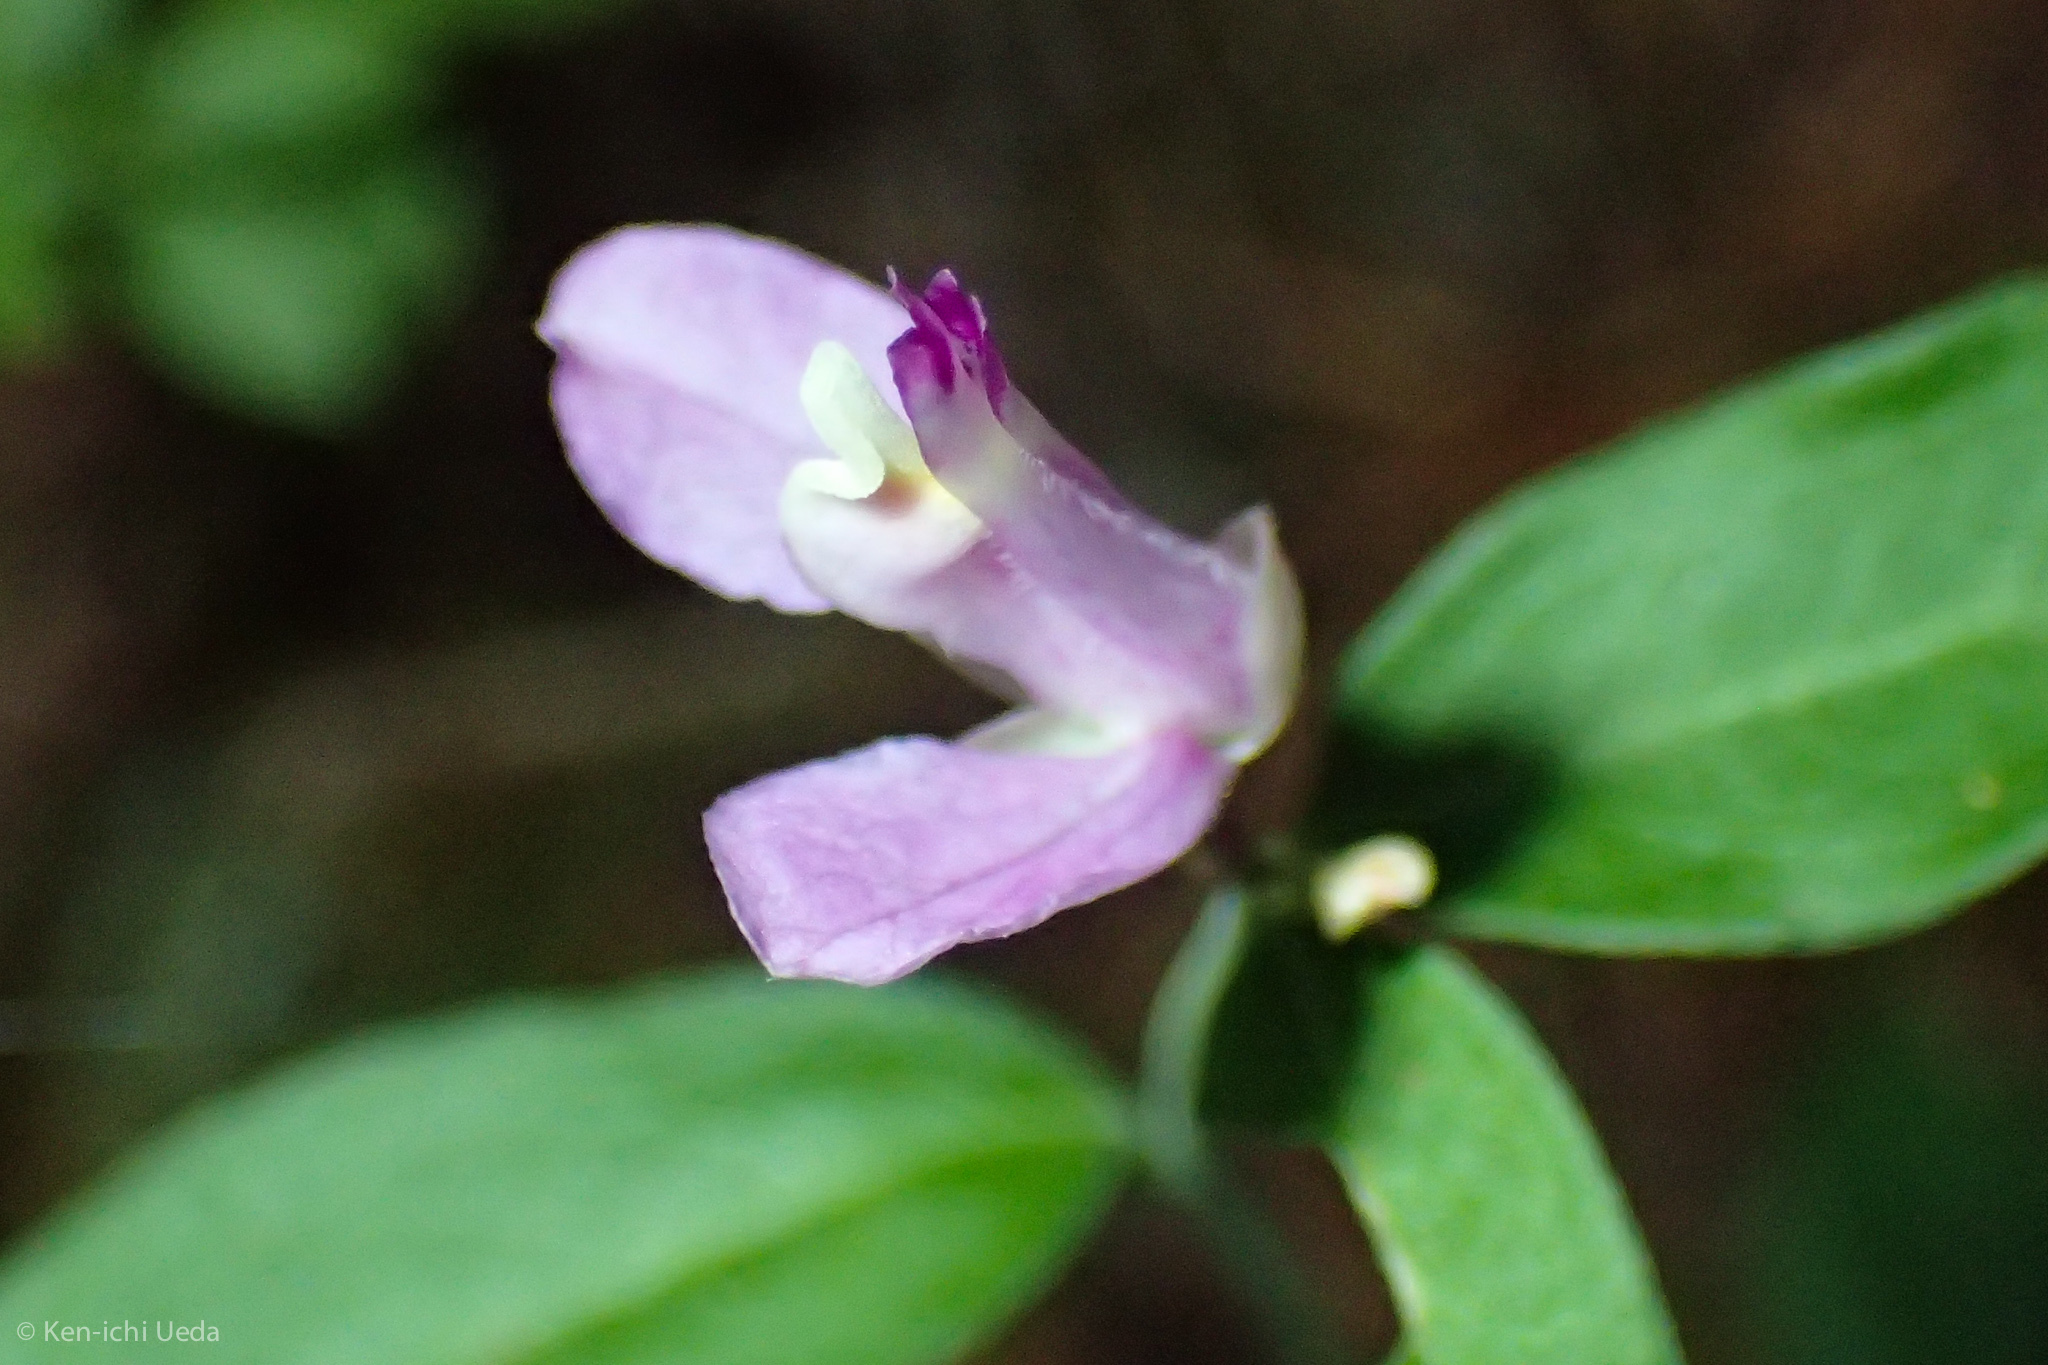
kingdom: Plantae
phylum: Tracheophyta
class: Magnoliopsida
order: Fabales
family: Polygalaceae
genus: Rhinotropis
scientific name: Rhinotropis californica
